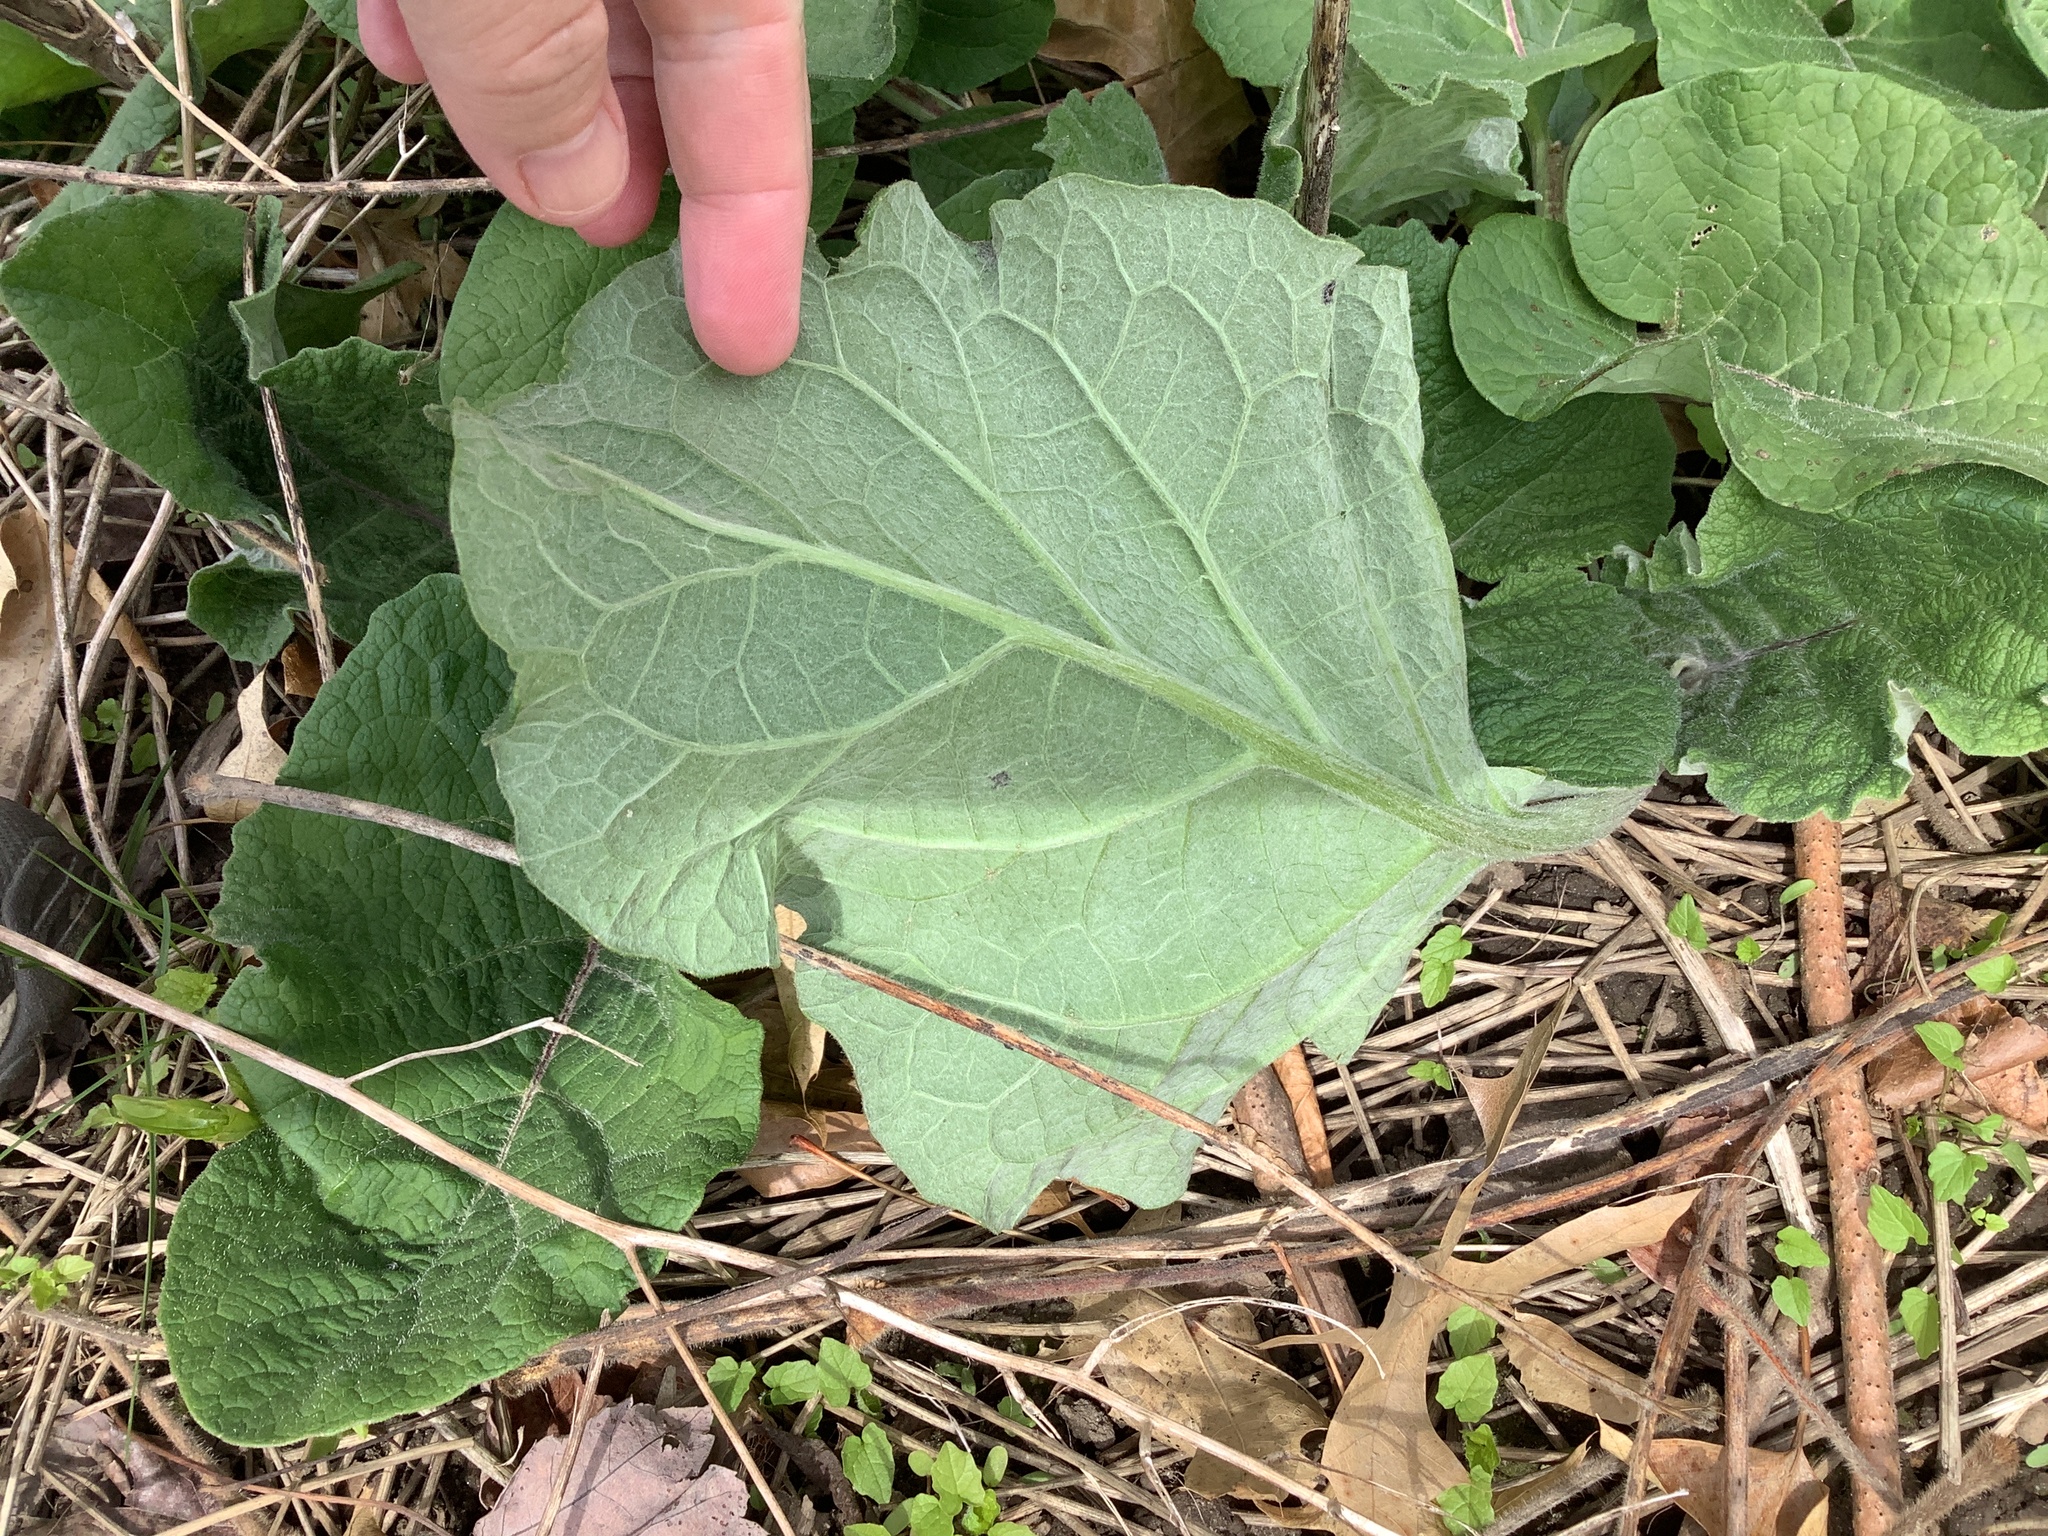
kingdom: Plantae
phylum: Tracheophyta
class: Magnoliopsida
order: Asterales
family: Asteraceae
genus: Arctium
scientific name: Arctium
